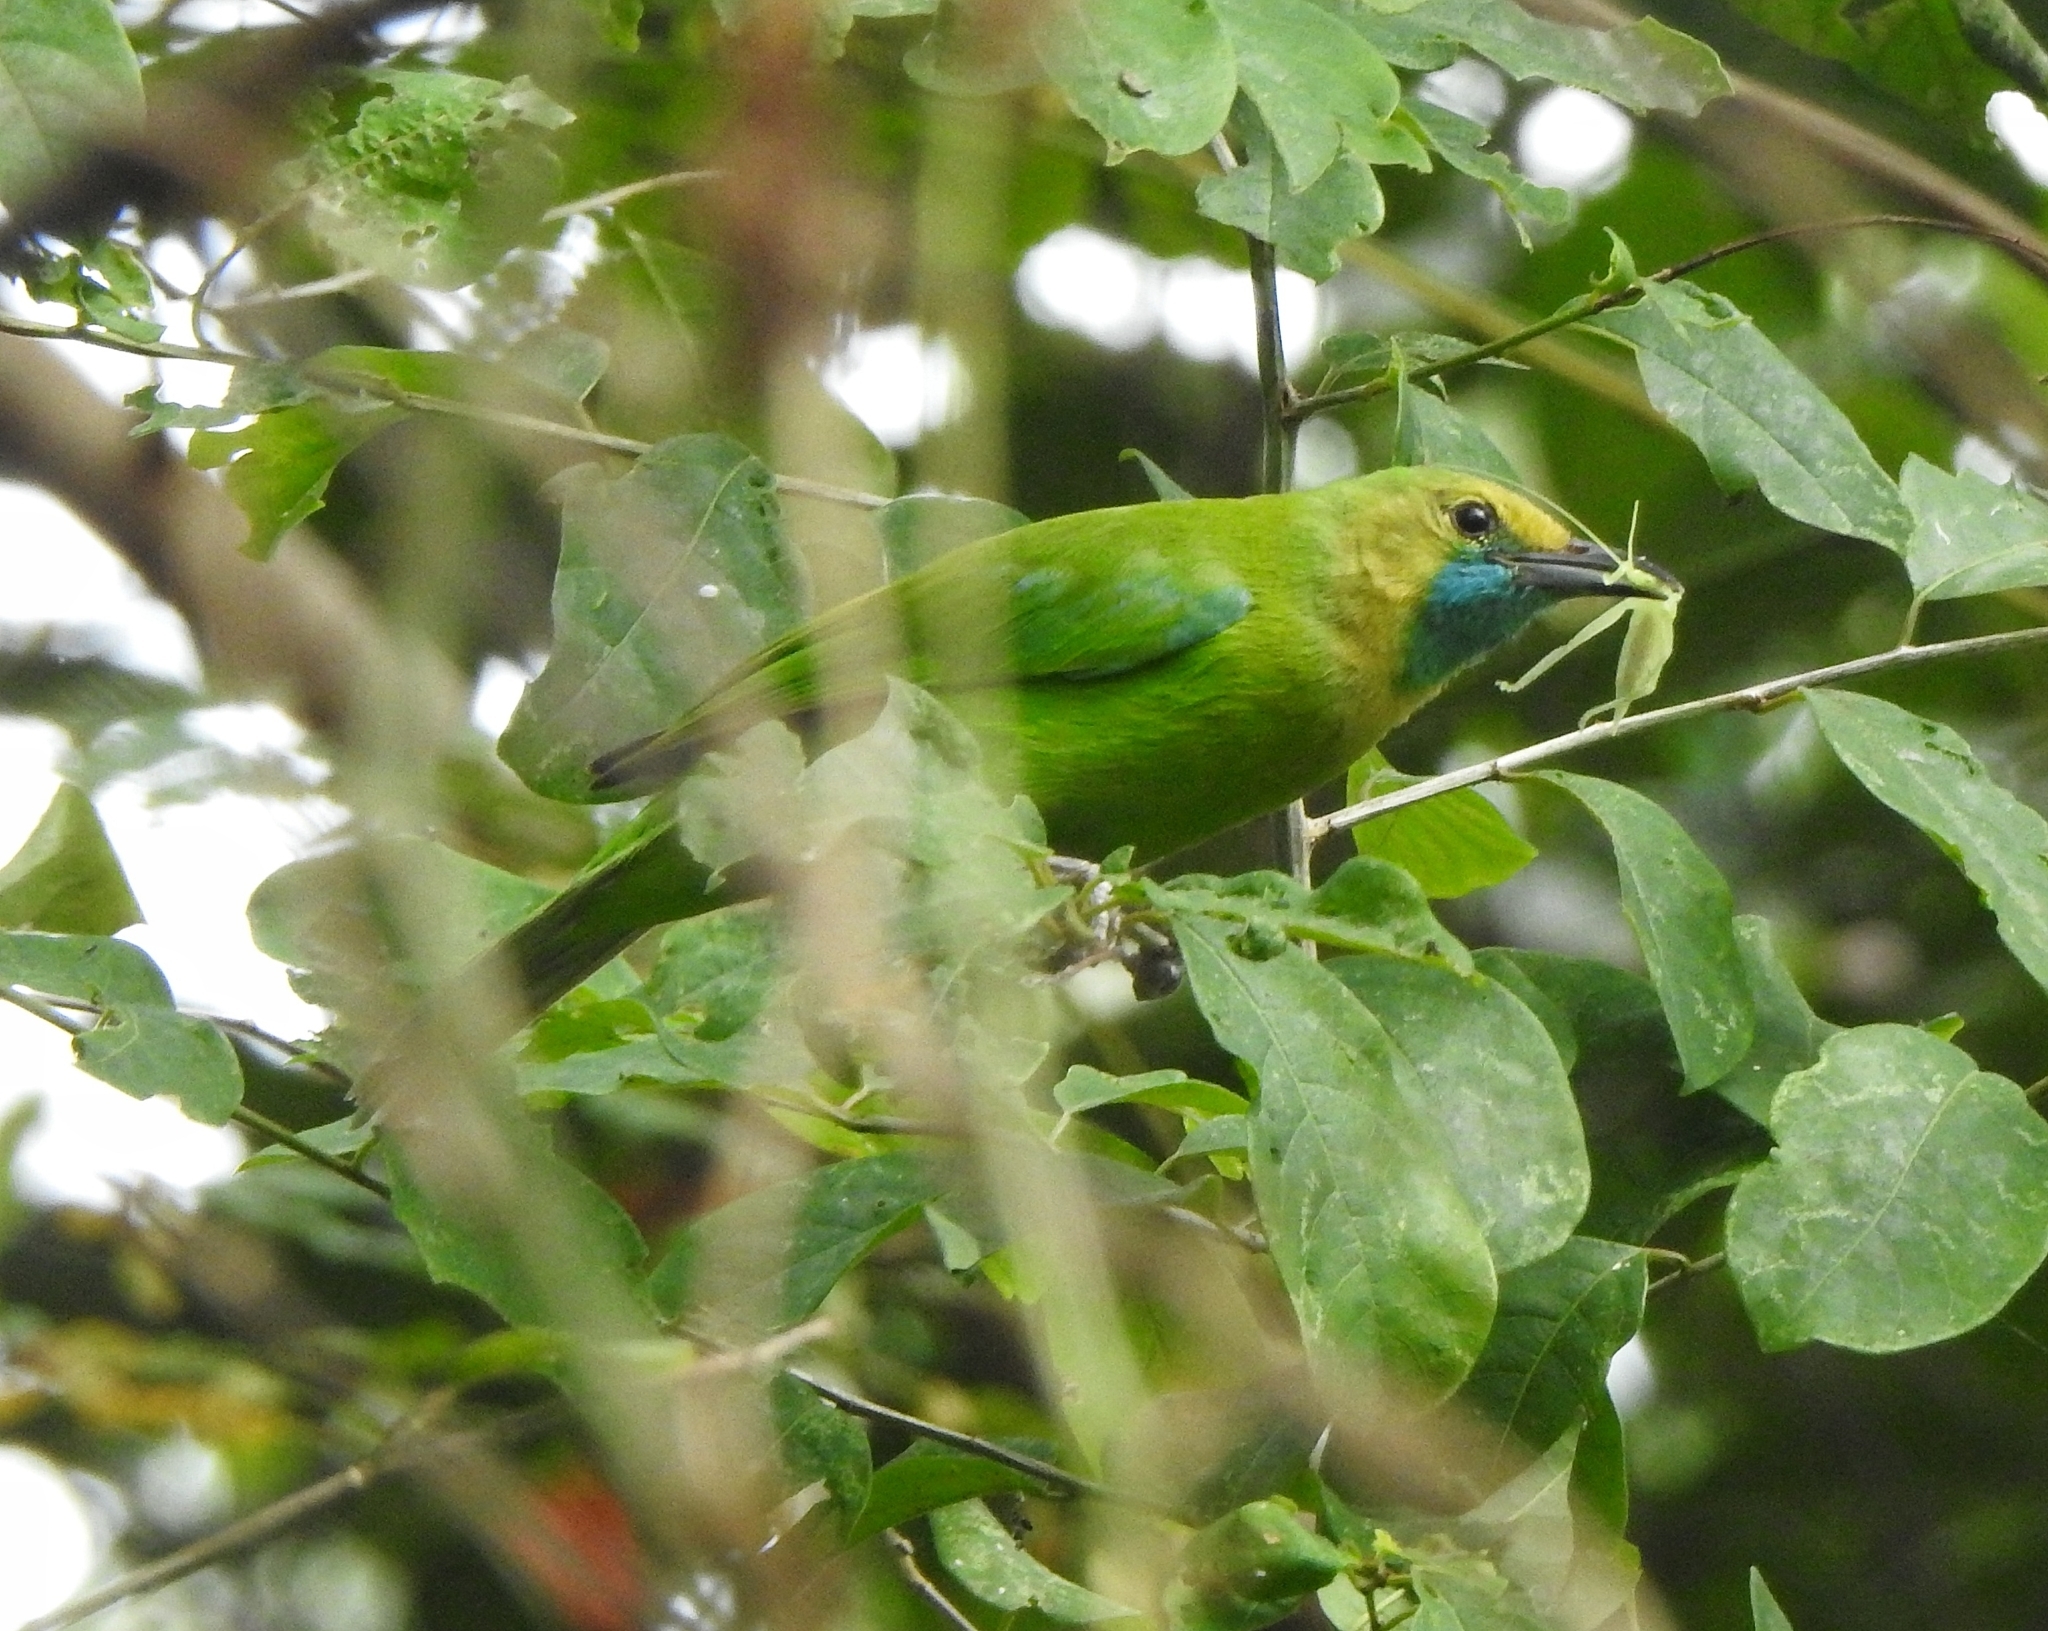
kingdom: Animalia
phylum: Chordata
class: Aves
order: Passeriformes
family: Chloropseidae
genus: Chloropsis
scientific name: Chloropsis jerdoni
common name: Jerdon's leafbird
